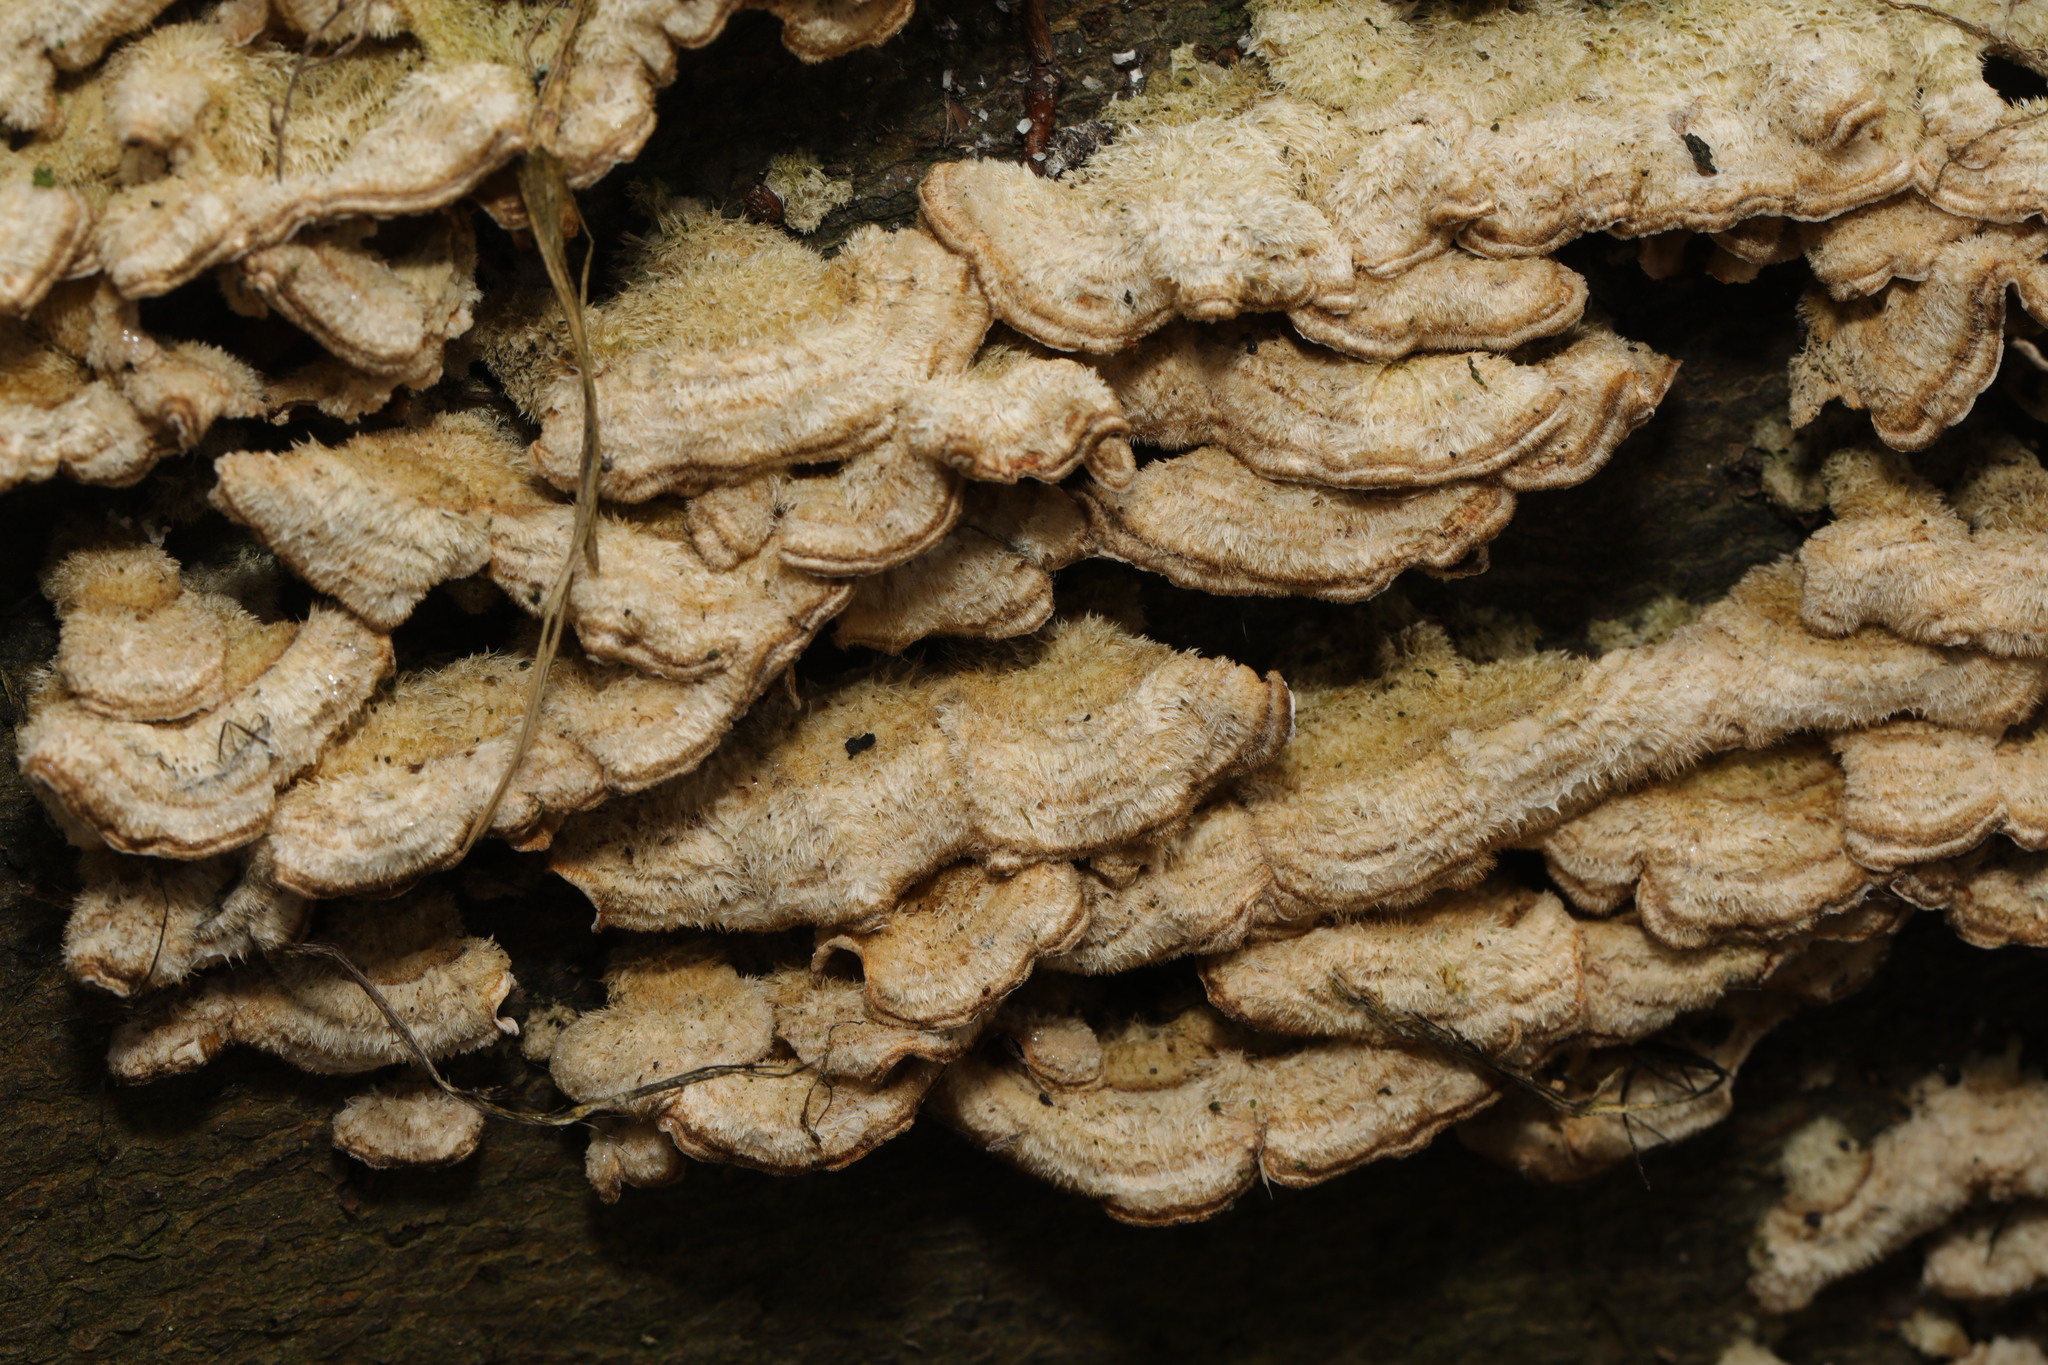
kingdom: Fungi
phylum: Basidiomycota
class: Agaricomycetes
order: Russulales
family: Stereaceae
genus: Stereum
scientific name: Stereum hirsutum
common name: Hairy curtain crust
